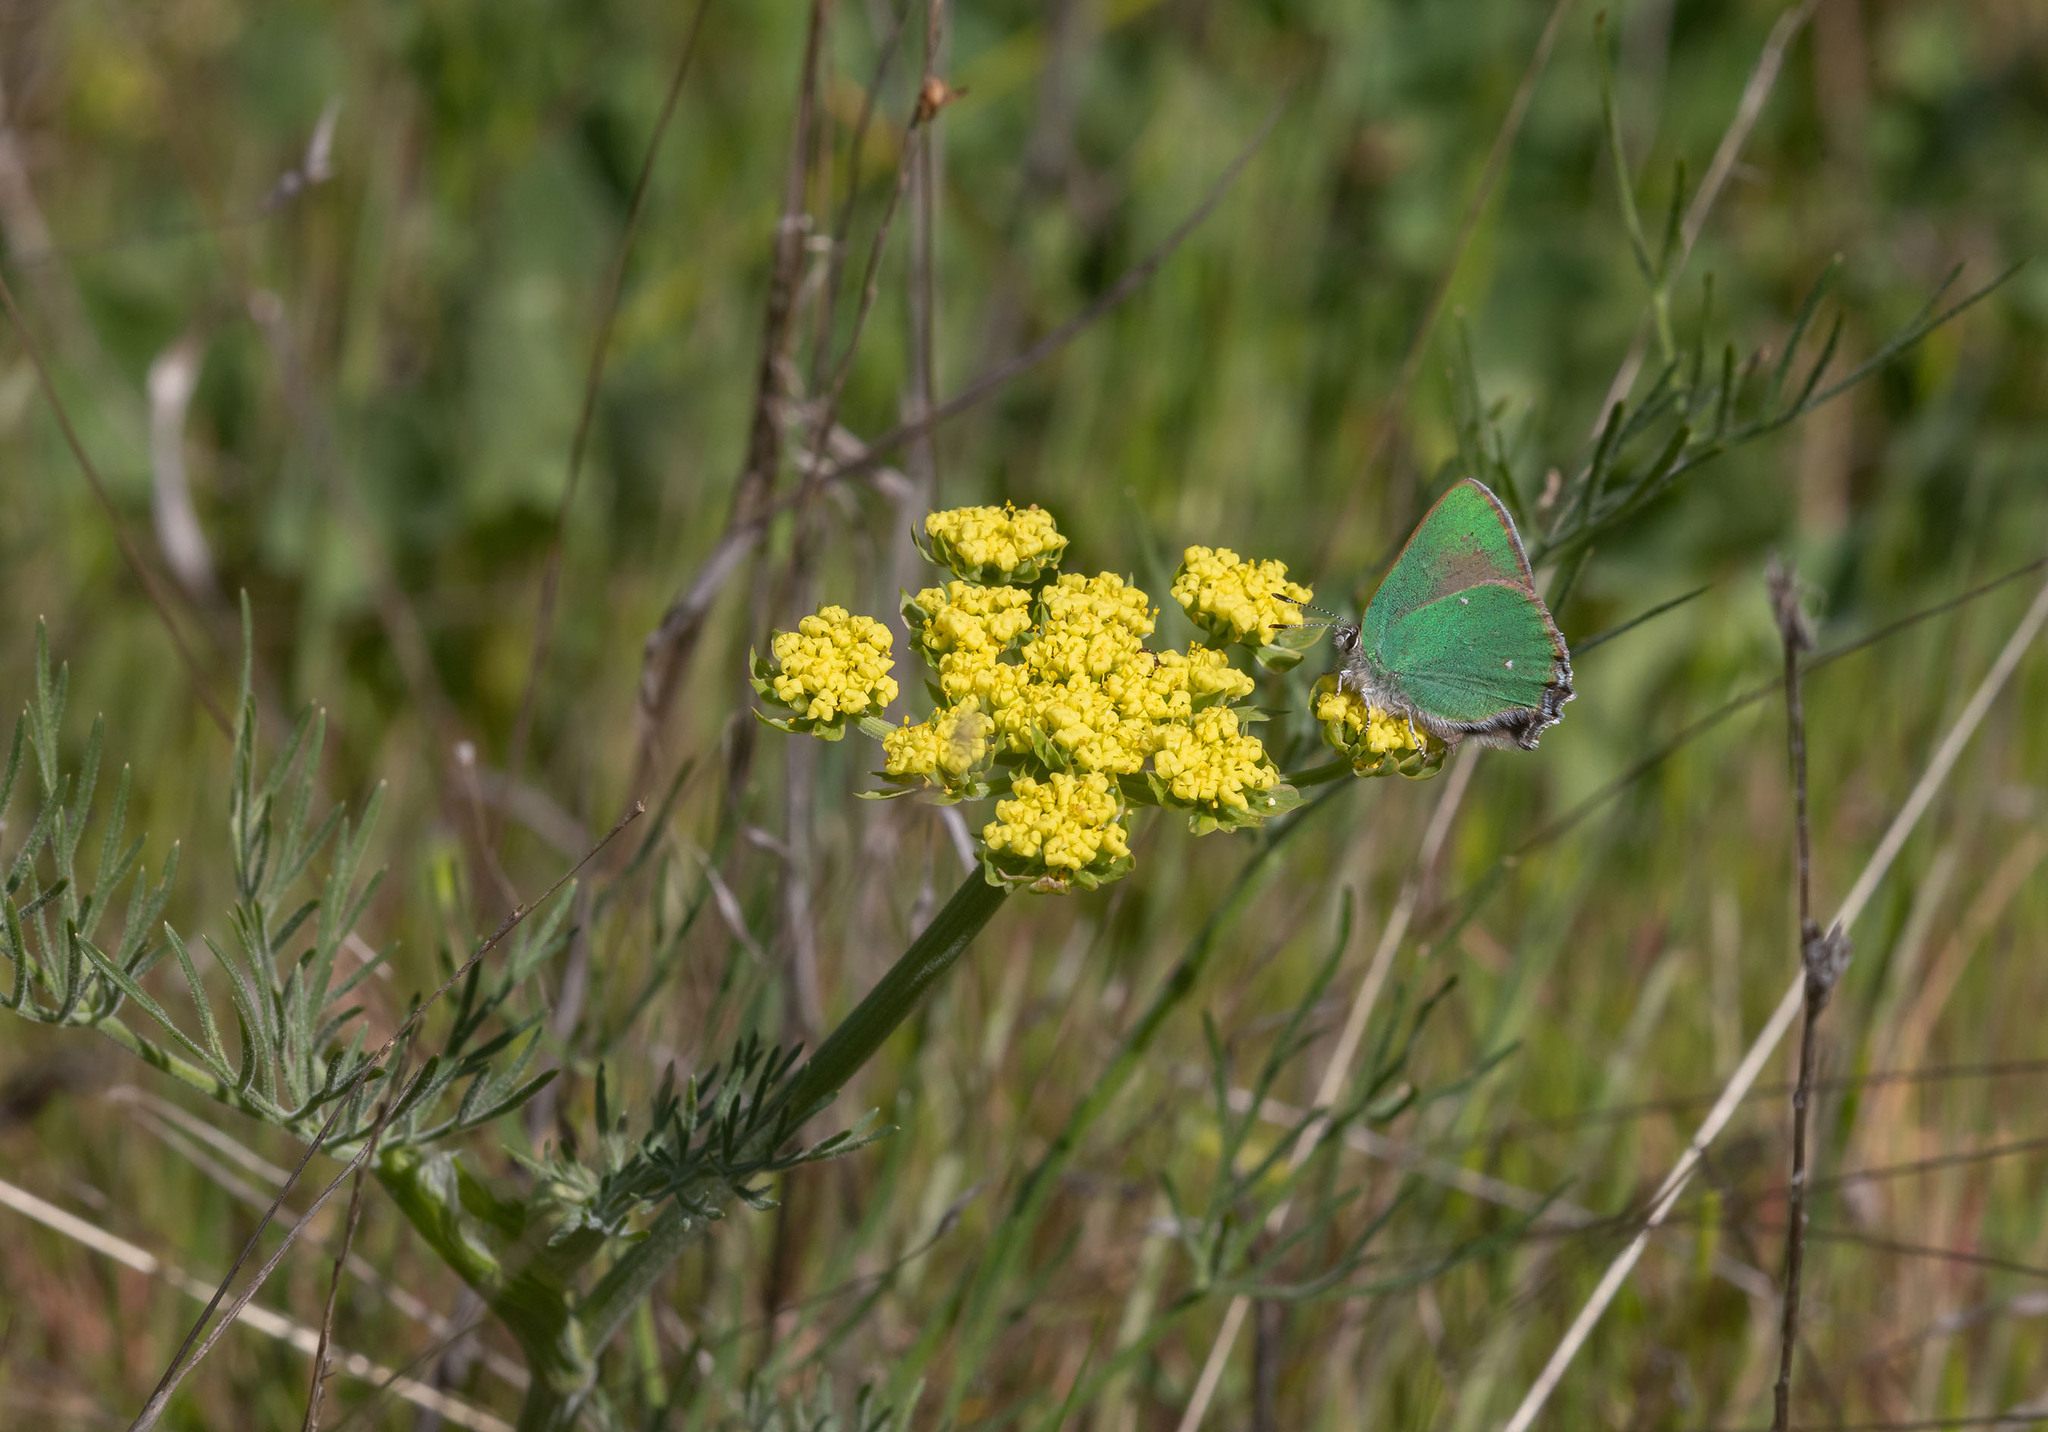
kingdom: Animalia
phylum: Arthropoda
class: Insecta
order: Lepidoptera
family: Lycaenidae
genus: Callophrys
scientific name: Callophrys dumetorum
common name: Bramble hairstreak
